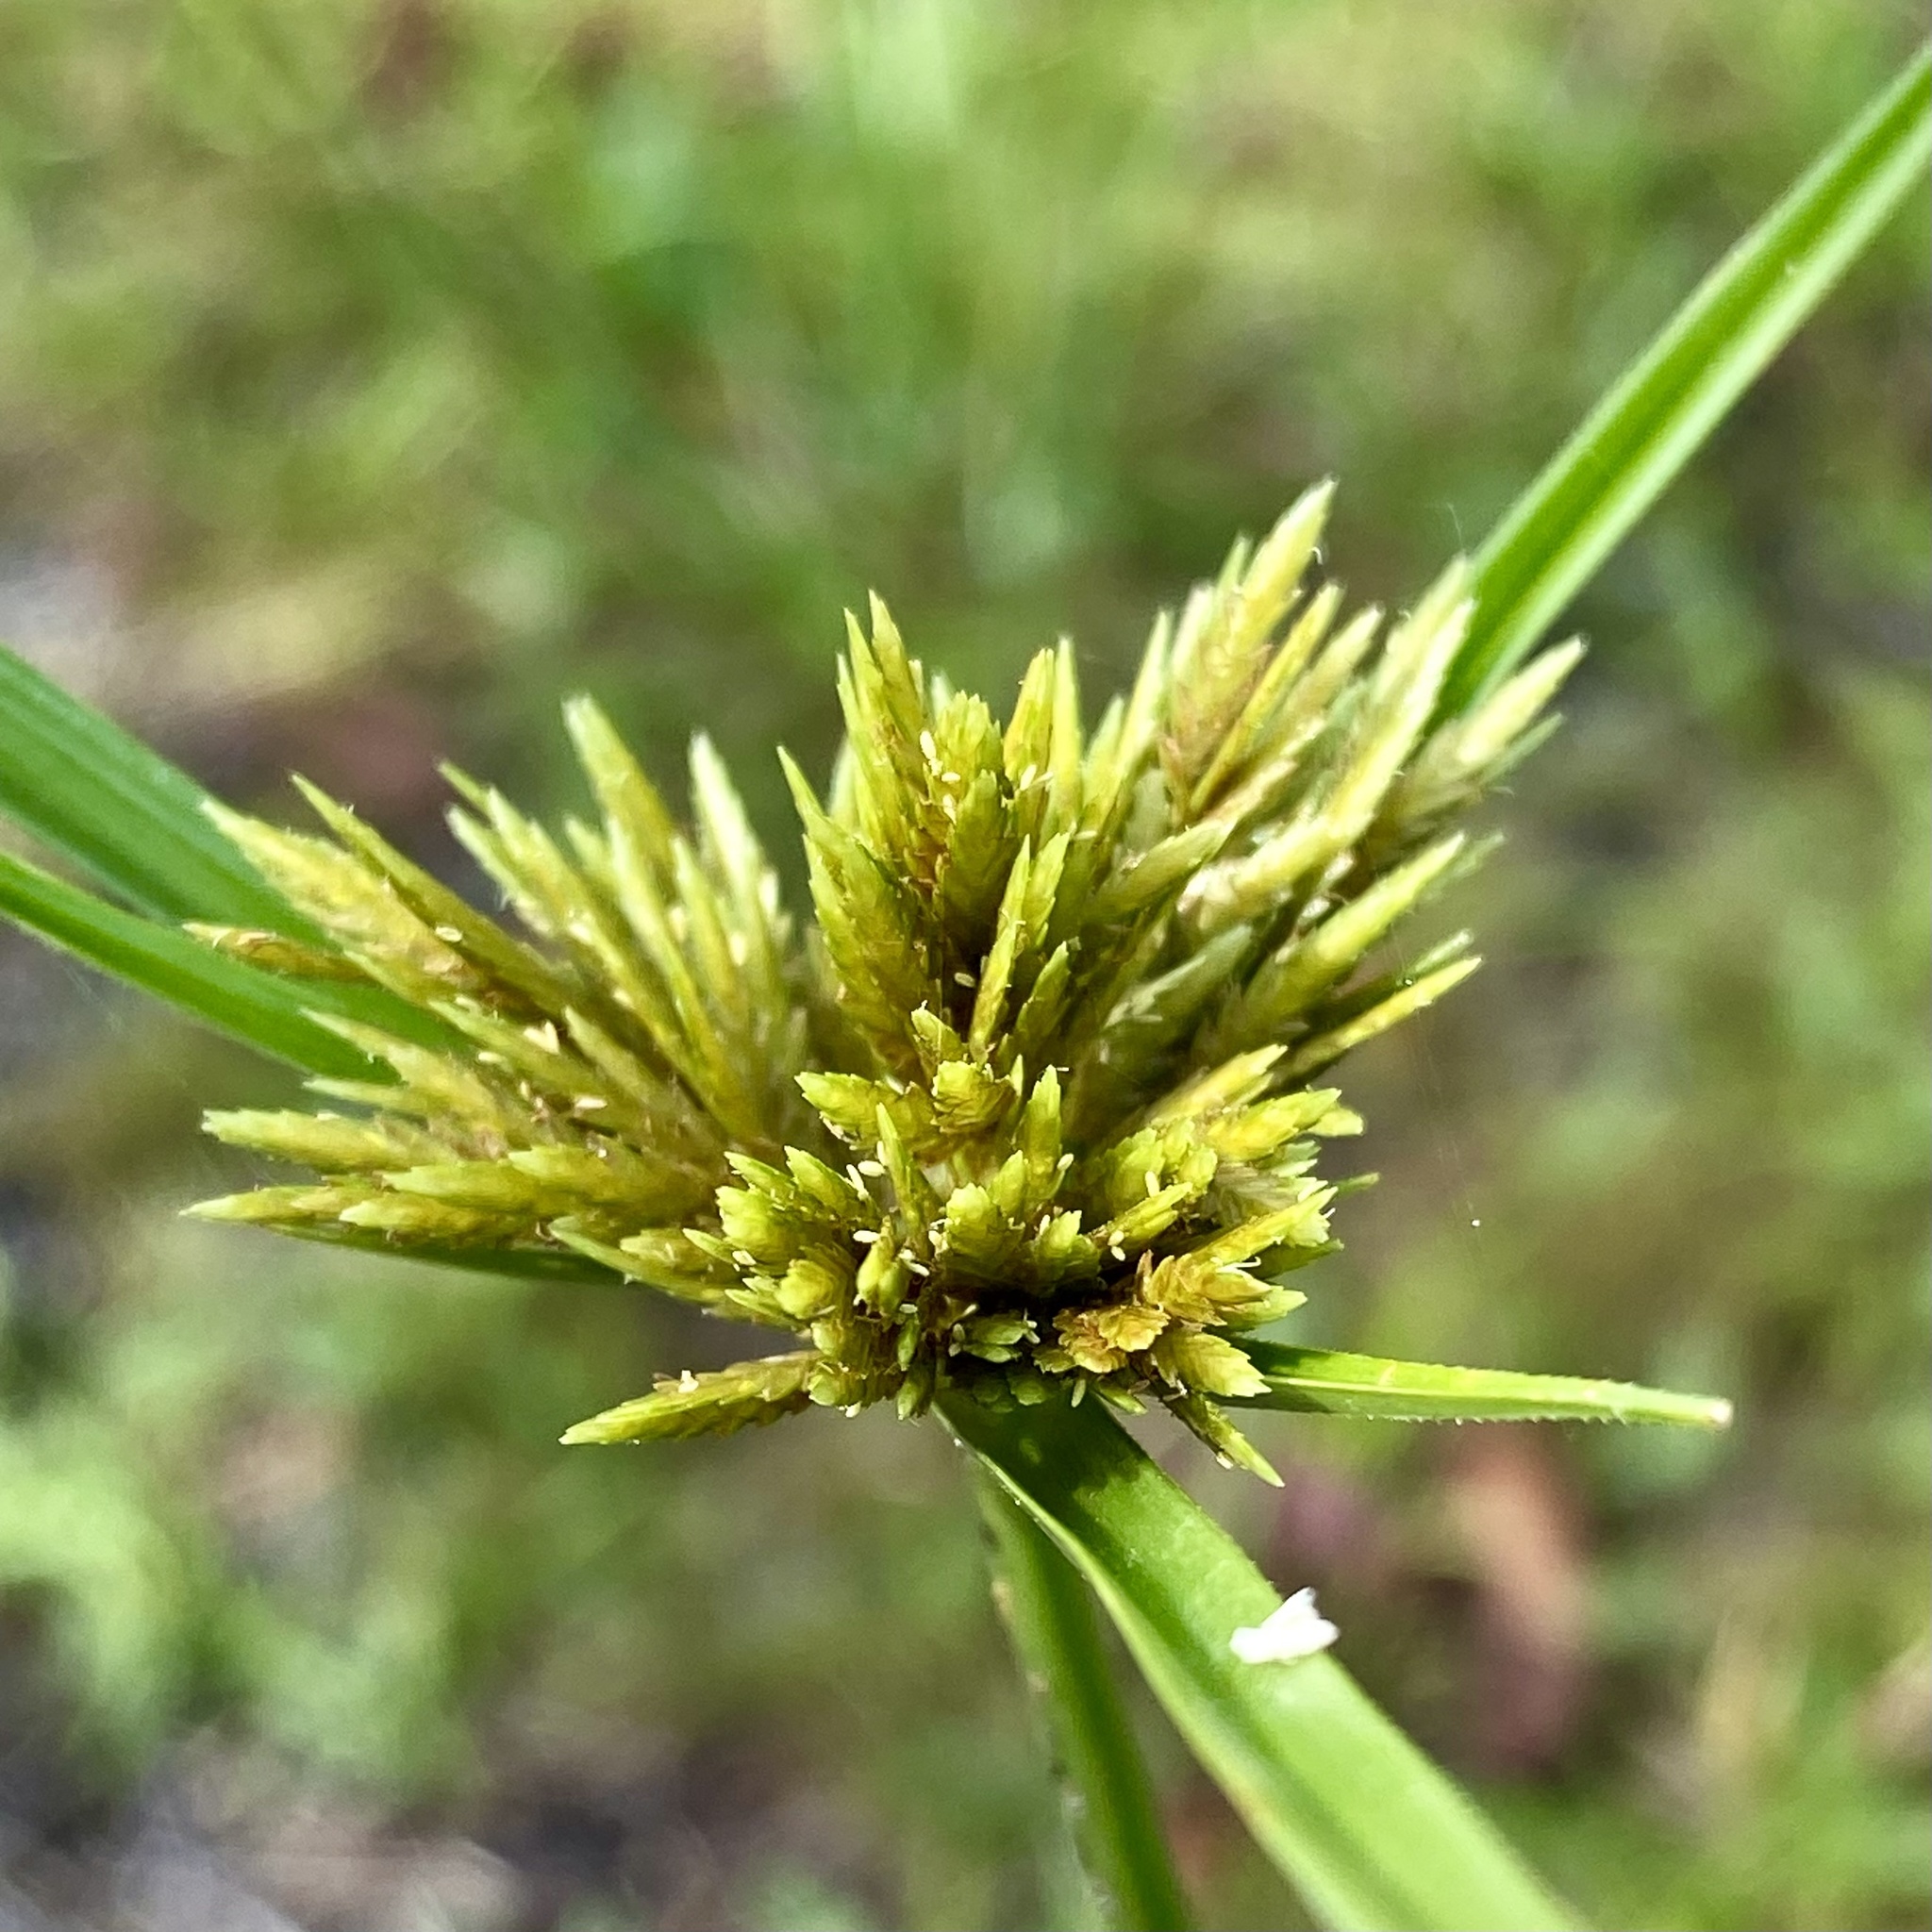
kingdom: Plantae
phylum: Tracheophyta
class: Liliopsida
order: Poales
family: Cyperaceae
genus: Cyperus
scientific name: Cyperus polystachyos
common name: Bunchy flat sedge
